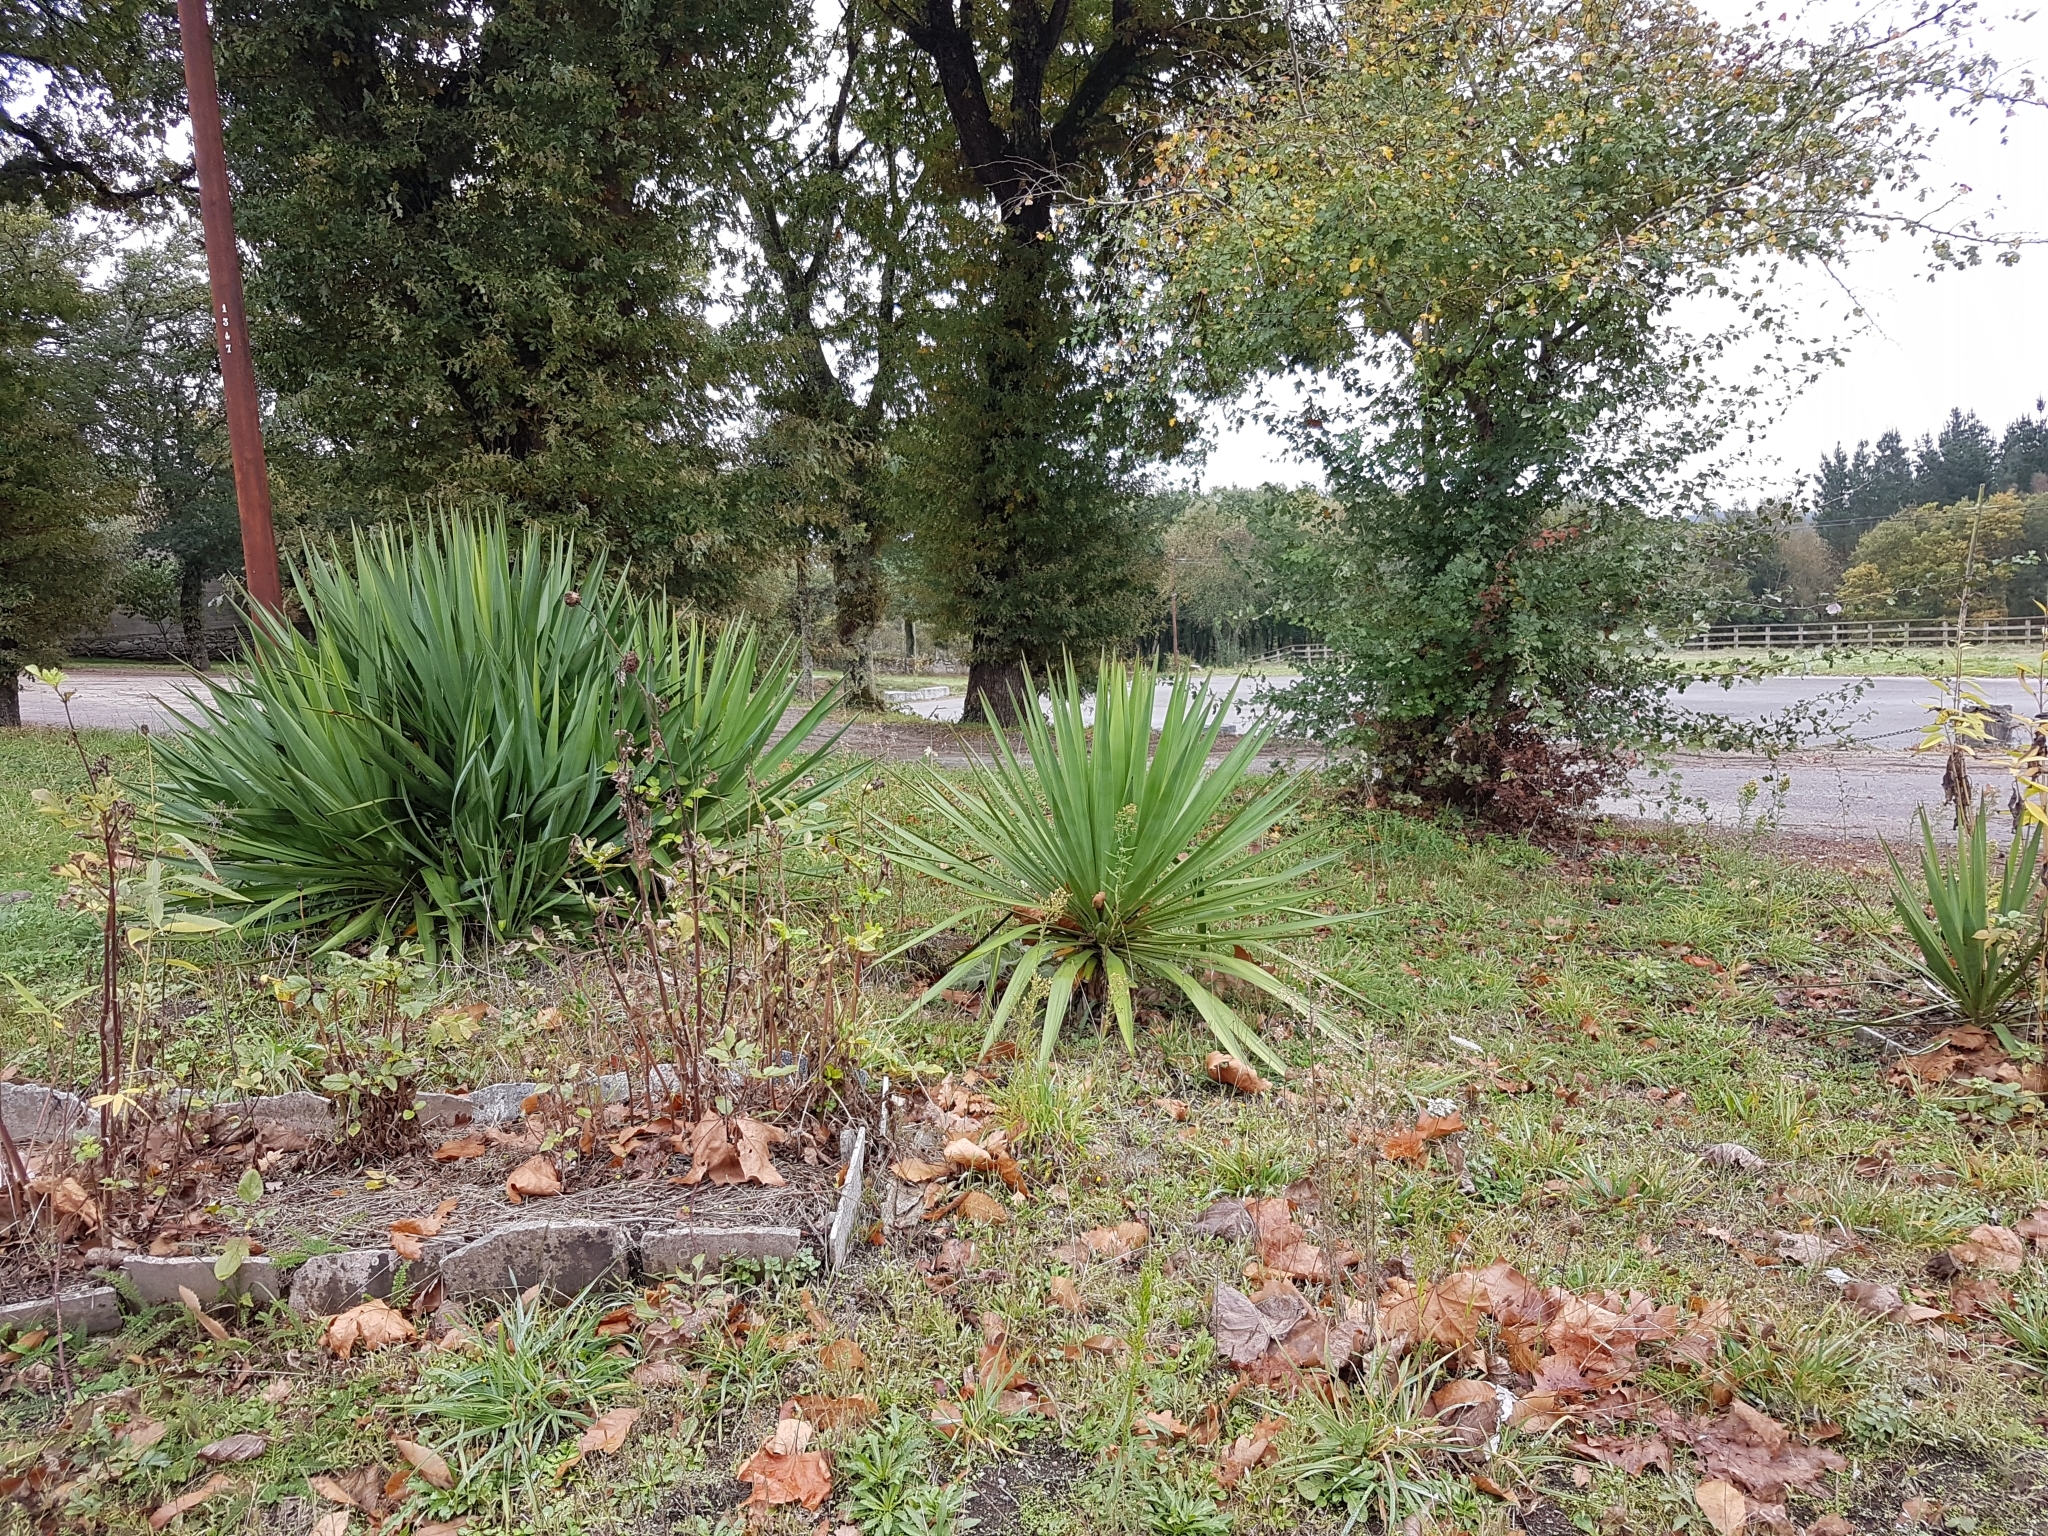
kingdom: Plantae
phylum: Tracheophyta
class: Liliopsida
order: Asparagales
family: Asparagaceae
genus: Yucca
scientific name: Yucca gloriosa
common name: Spanish-dagger
